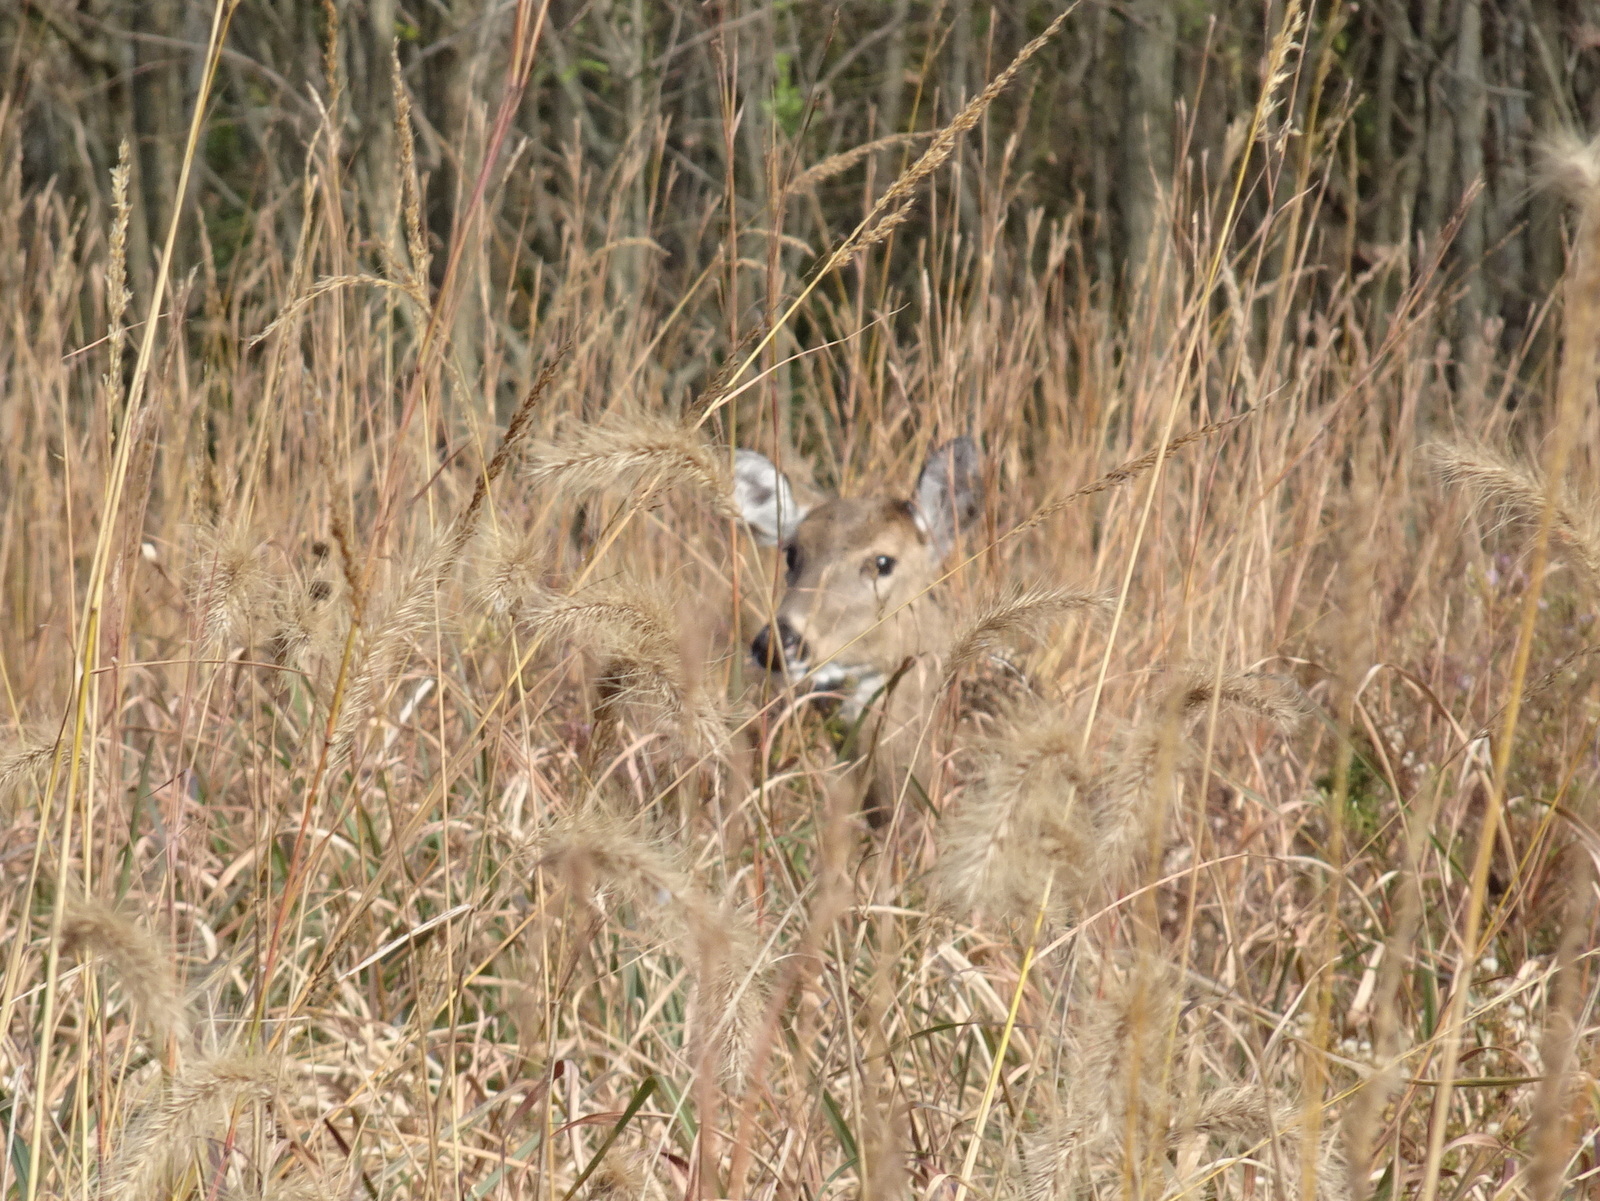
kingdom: Animalia
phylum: Chordata
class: Mammalia
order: Artiodactyla
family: Cervidae
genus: Odocoileus
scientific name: Odocoileus virginianus
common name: White-tailed deer
